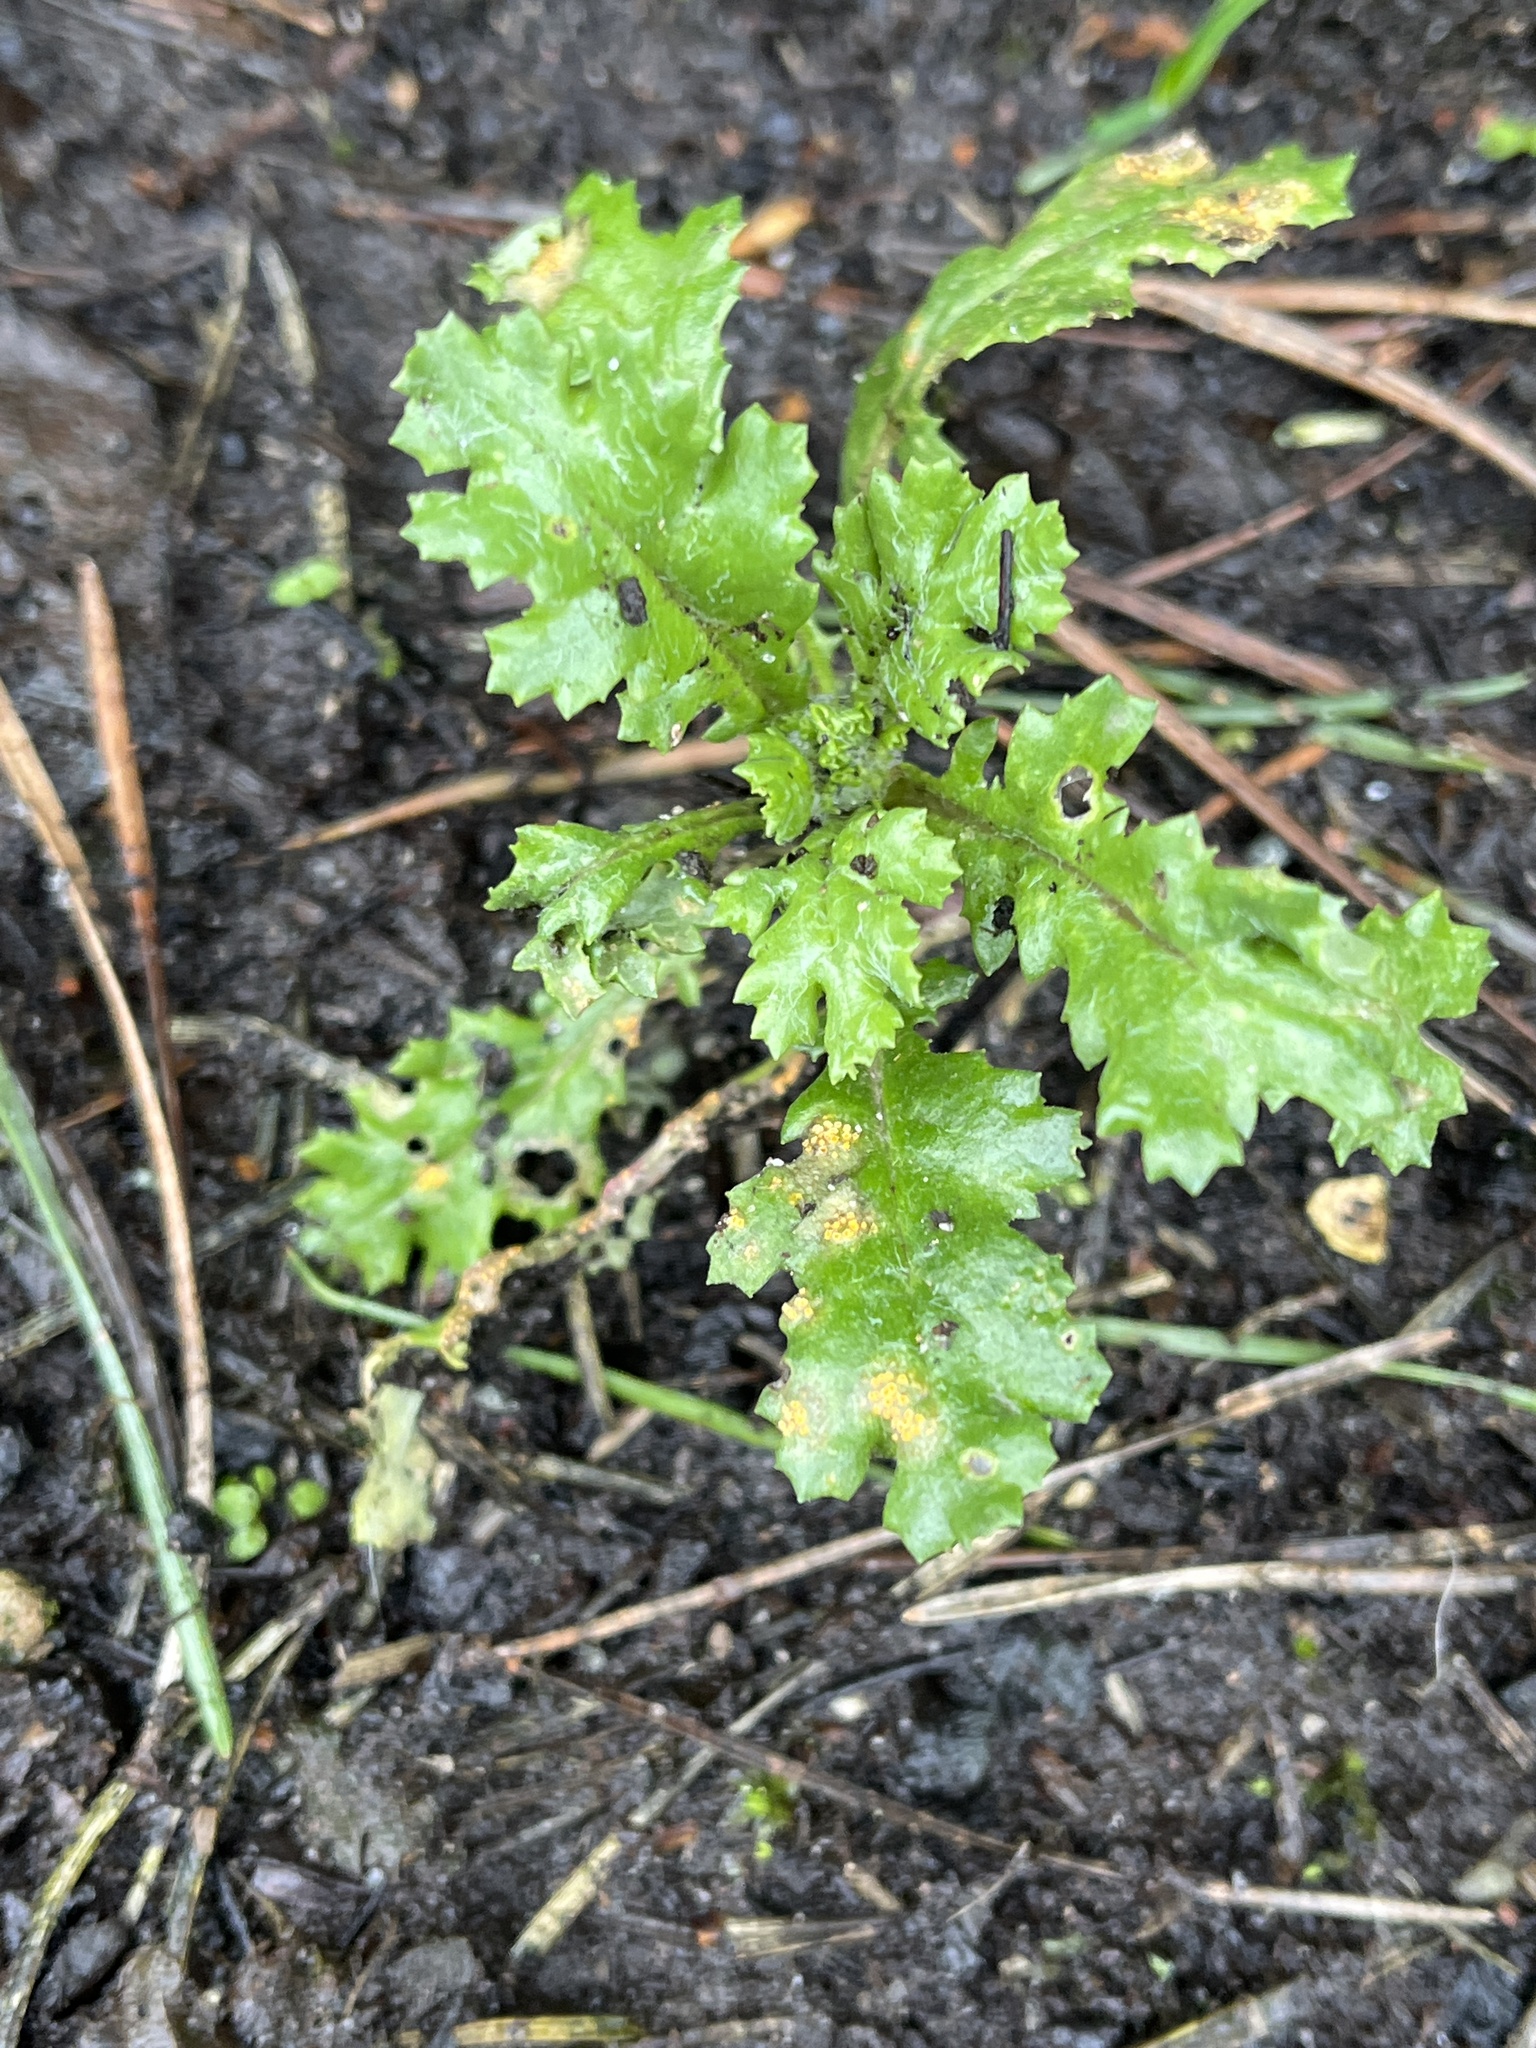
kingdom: Fungi
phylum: Basidiomycota
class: Pucciniomycetes
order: Pucciniales
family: Pucciniaceae
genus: Puccinia
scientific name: Puccinia lagenophorae
